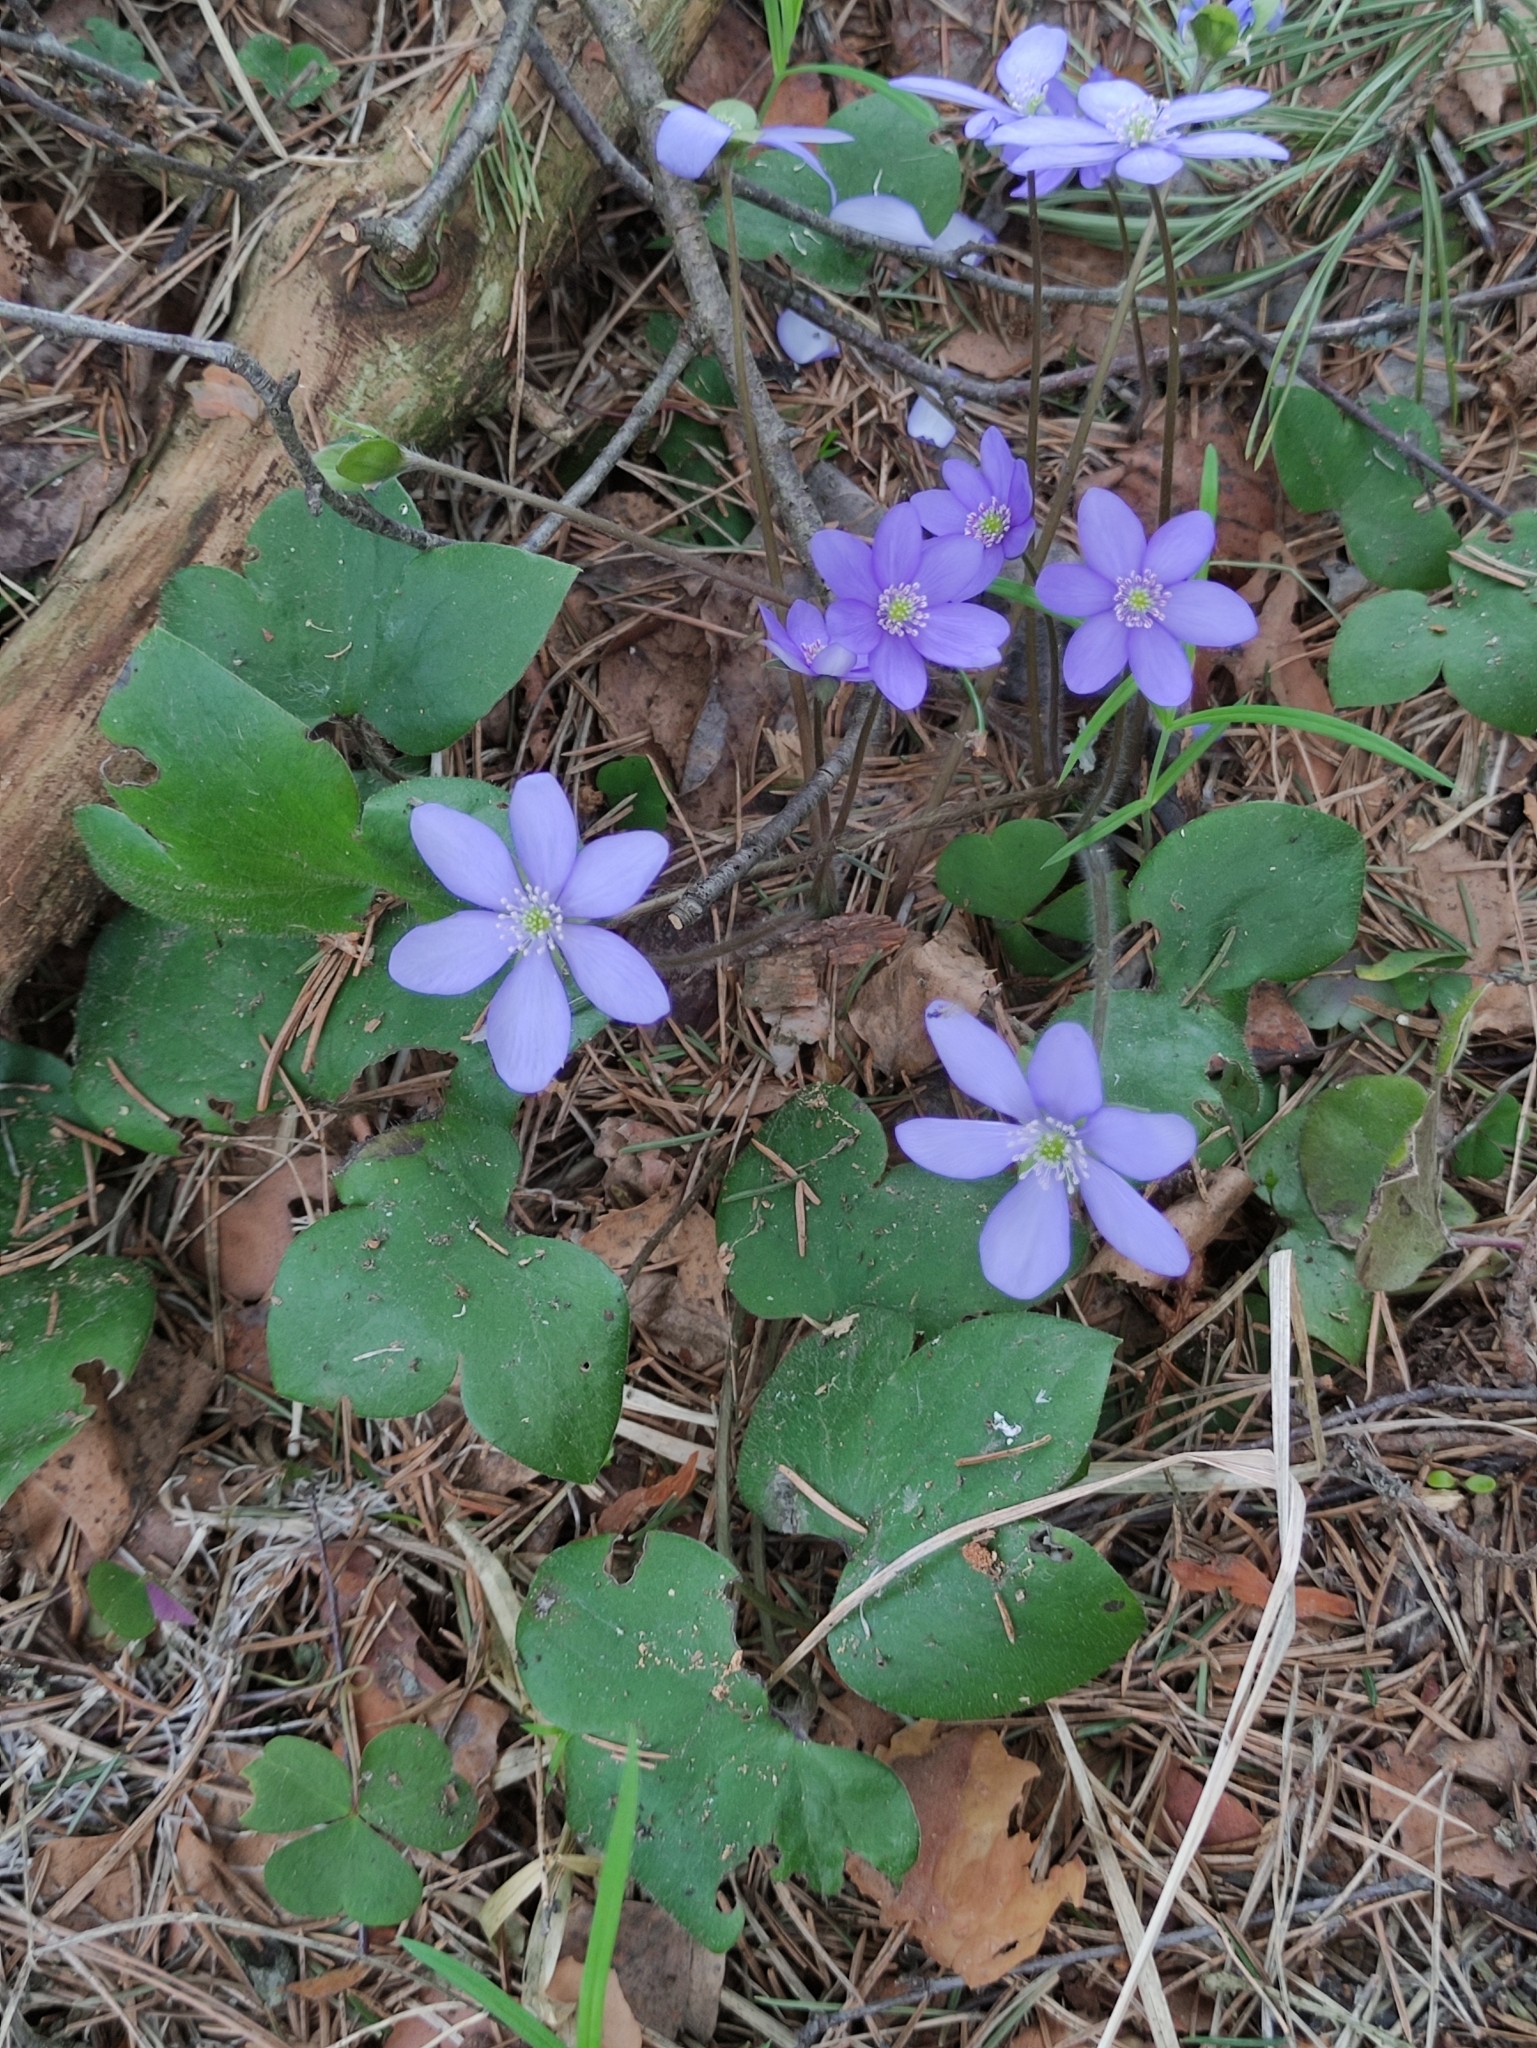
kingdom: Plantae
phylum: Tracheophyta
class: Magnoliopsida
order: Ranunculales
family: Ranunculaceae
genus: Hepatica
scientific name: Hepatica nobilis
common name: Liverleaf
